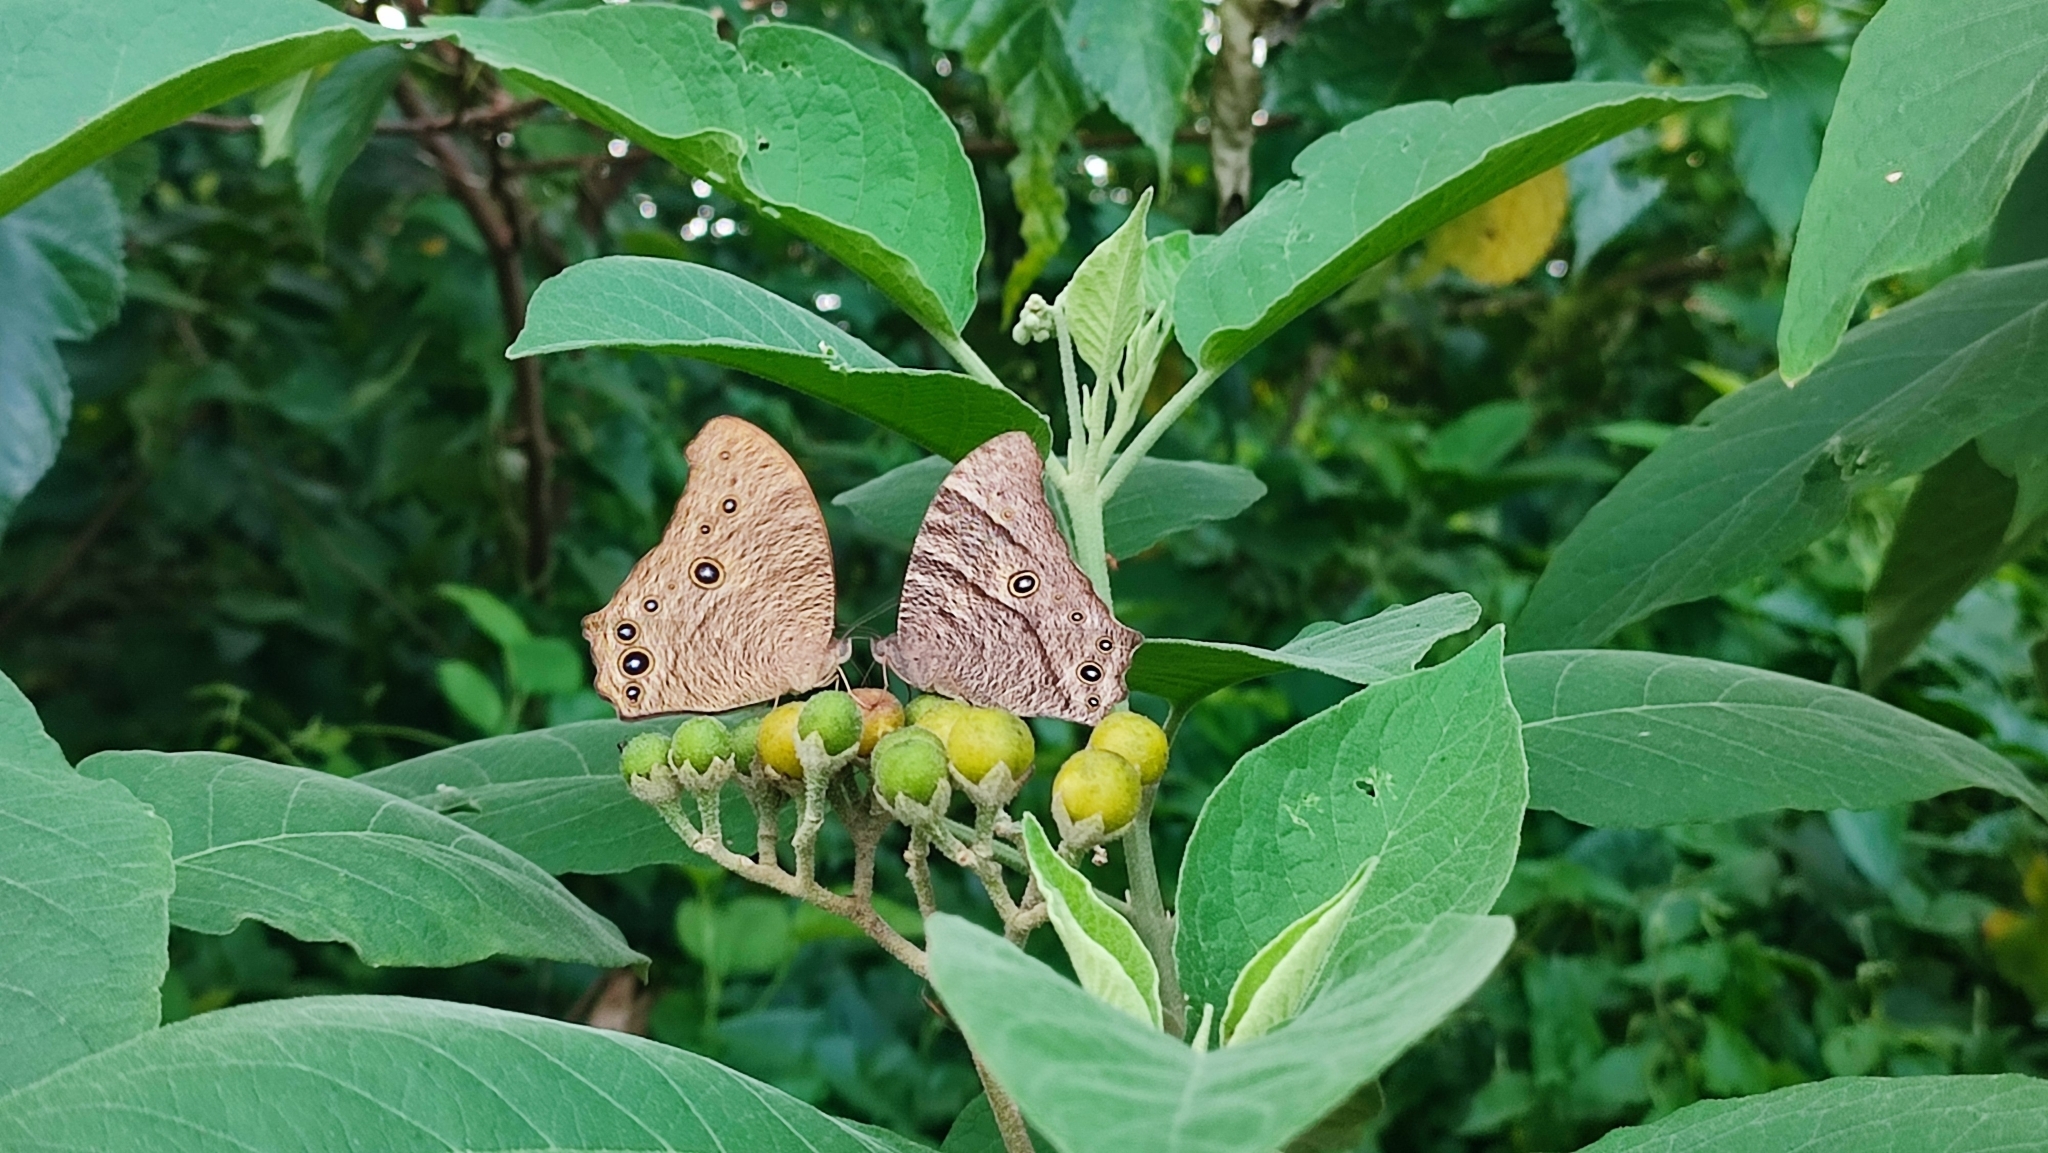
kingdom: Animalia
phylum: Arthropoda
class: Insecta
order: Lepidoptera
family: Nymphalidae
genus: Melanitis
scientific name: Melanitis leda
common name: Twilight brown
